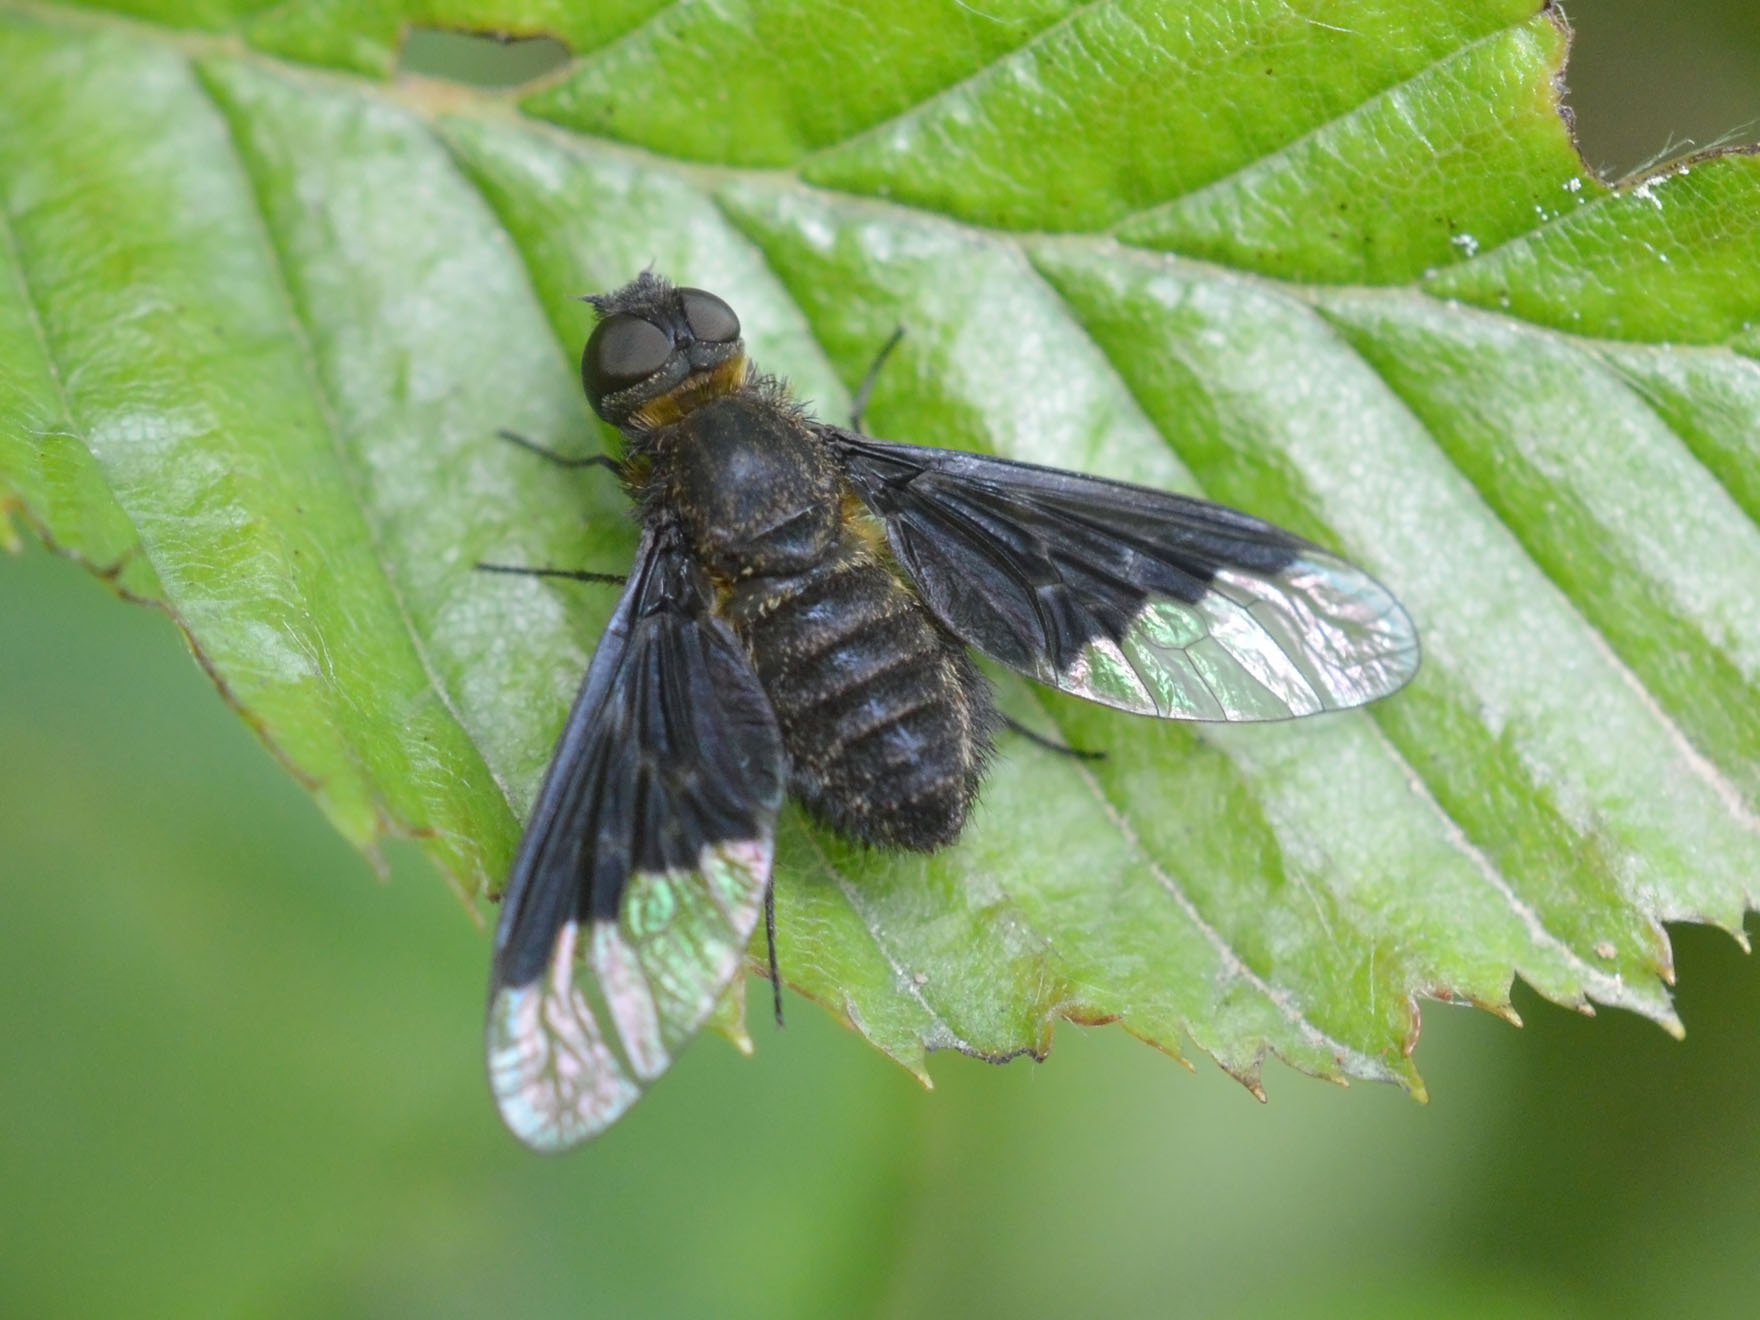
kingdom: Animalia
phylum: Arthropoda
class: Insecta
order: Diptera
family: Bombyliidae
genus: Hemipenthes
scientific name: Hemipenthes morio
